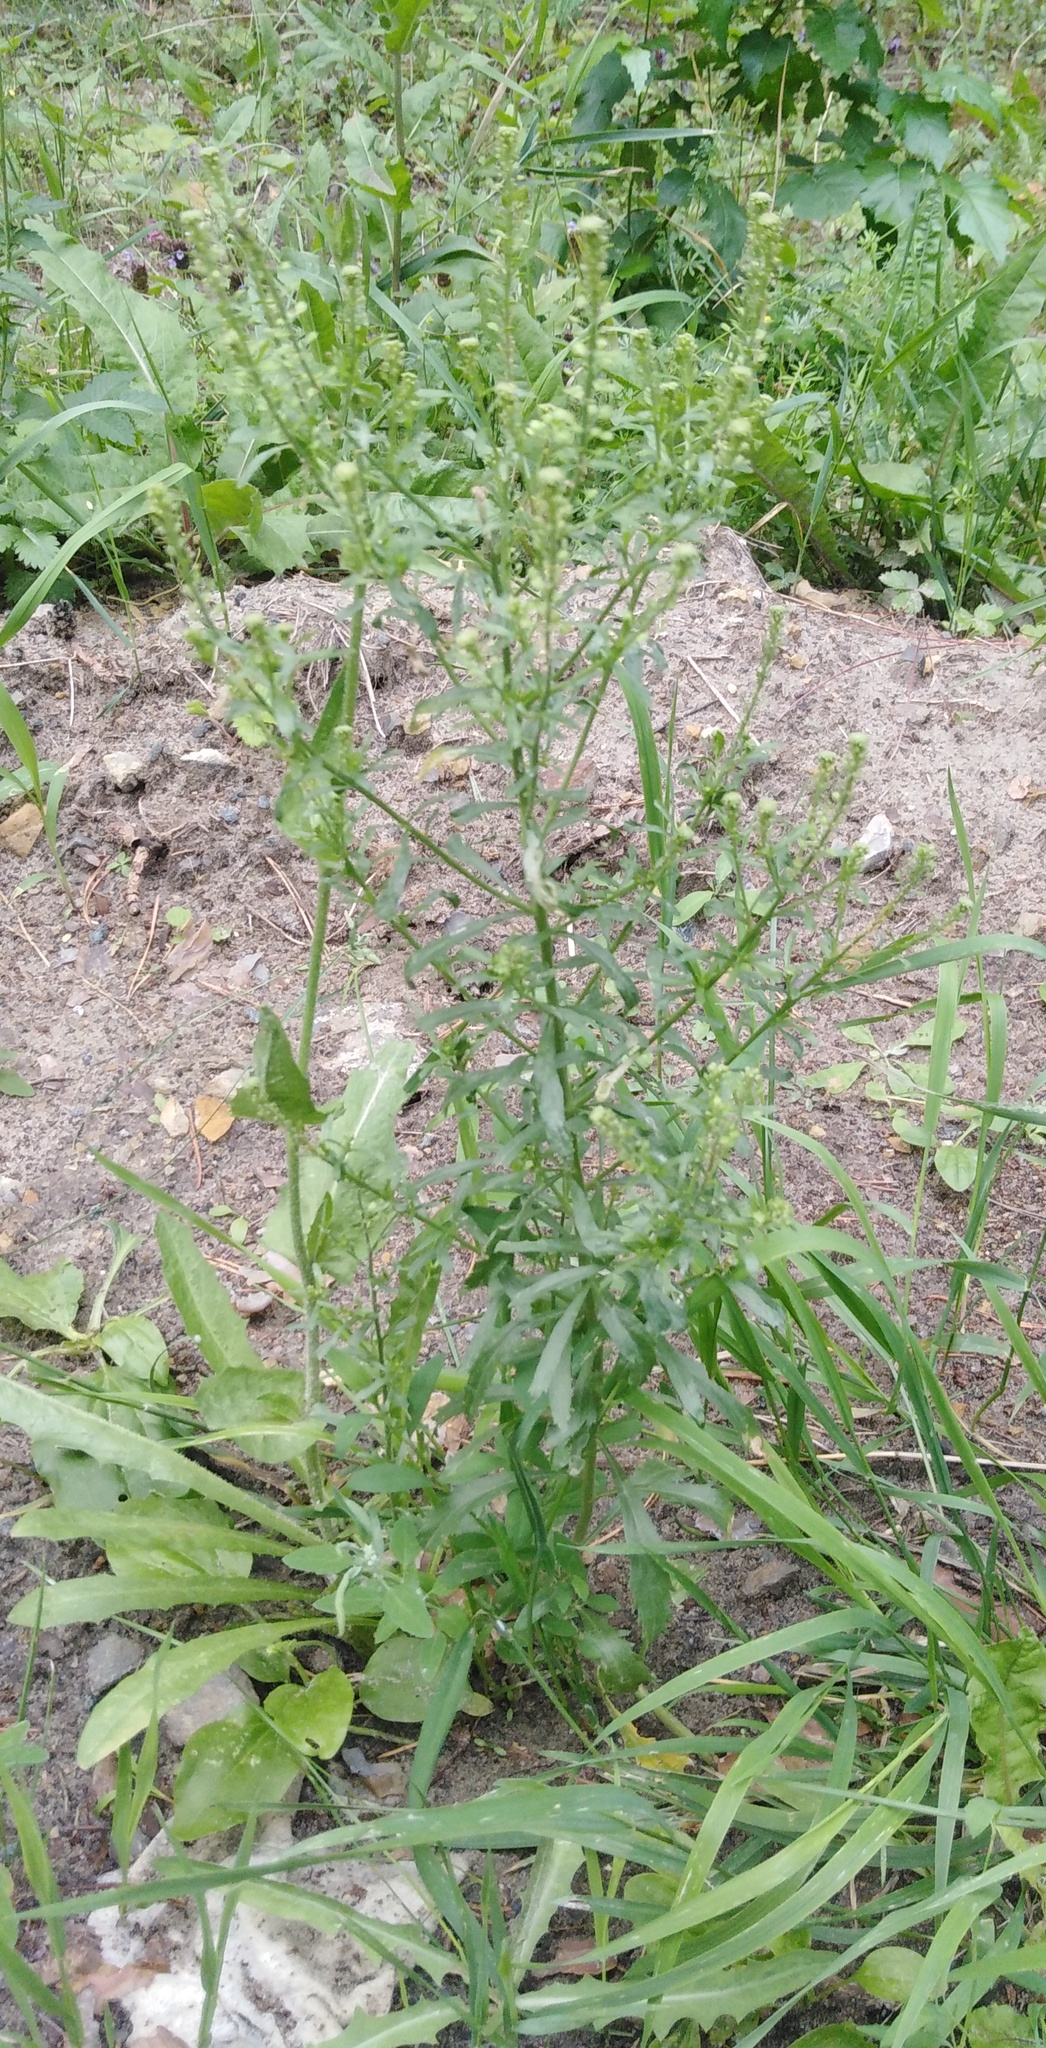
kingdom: Plantae
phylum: Tracheophyta
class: Magnoliopsida
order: Brassicales
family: Brassicaceae
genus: Lepidium
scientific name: Lepidium densiflorum
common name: Miner's pepperwort
